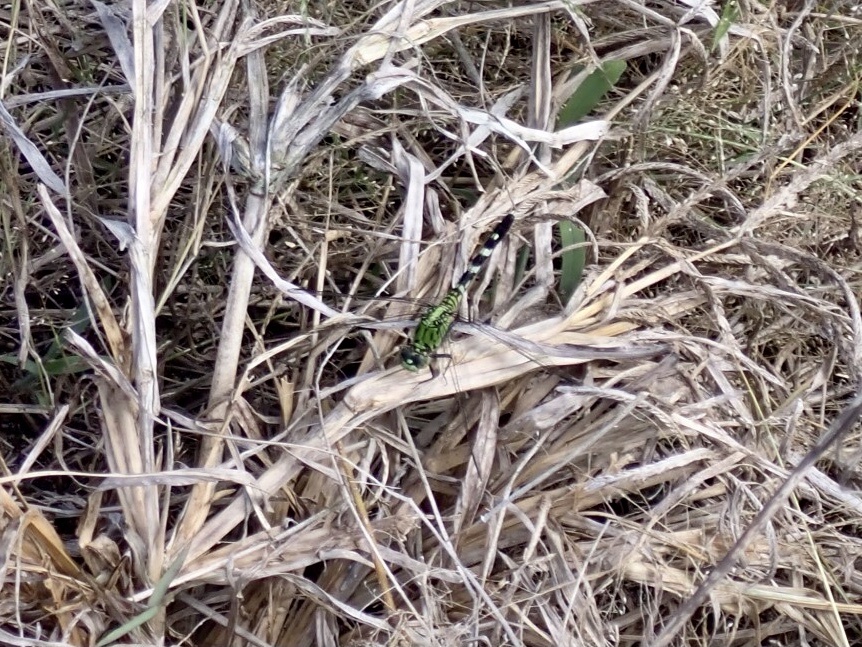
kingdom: Animalia
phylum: Arthropoda
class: Insecta
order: Odonata
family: Libellulidae
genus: Erythemis
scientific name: Erythemis simplicicollis
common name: Eastern pondhawk
